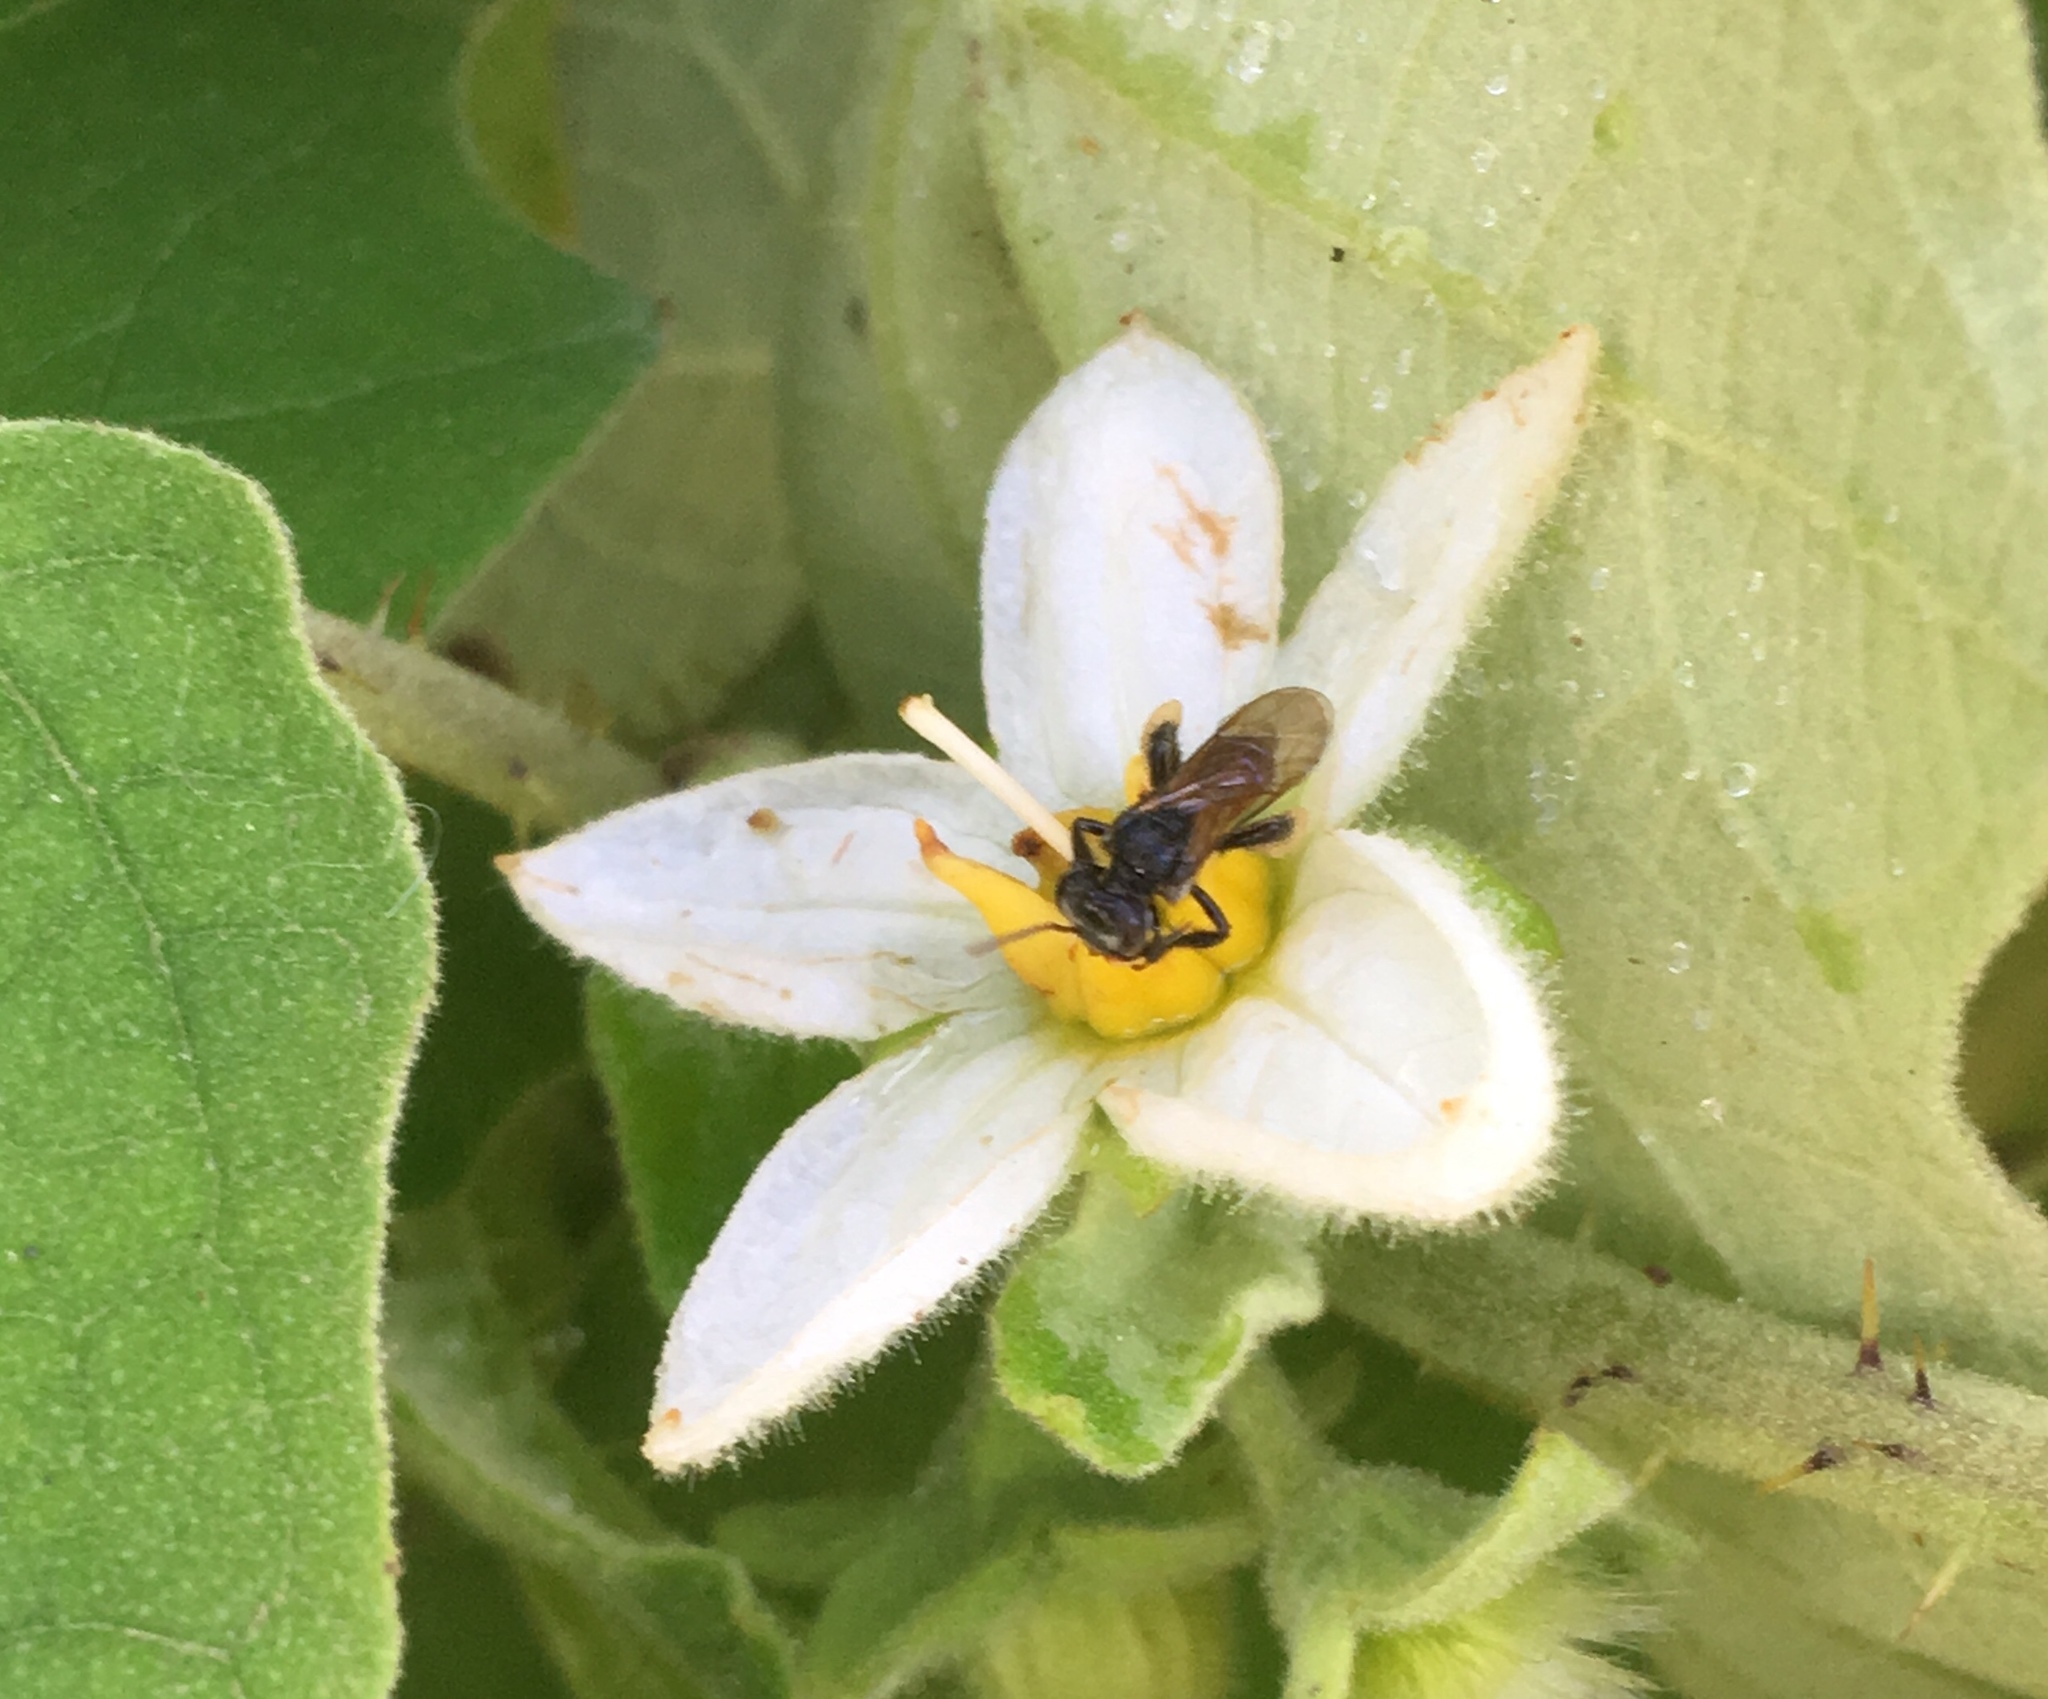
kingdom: Animalia
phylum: Arthropoda
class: Insecta
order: Hymenoptera
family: Apidae
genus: Trigona
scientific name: Trigona fulviventris
